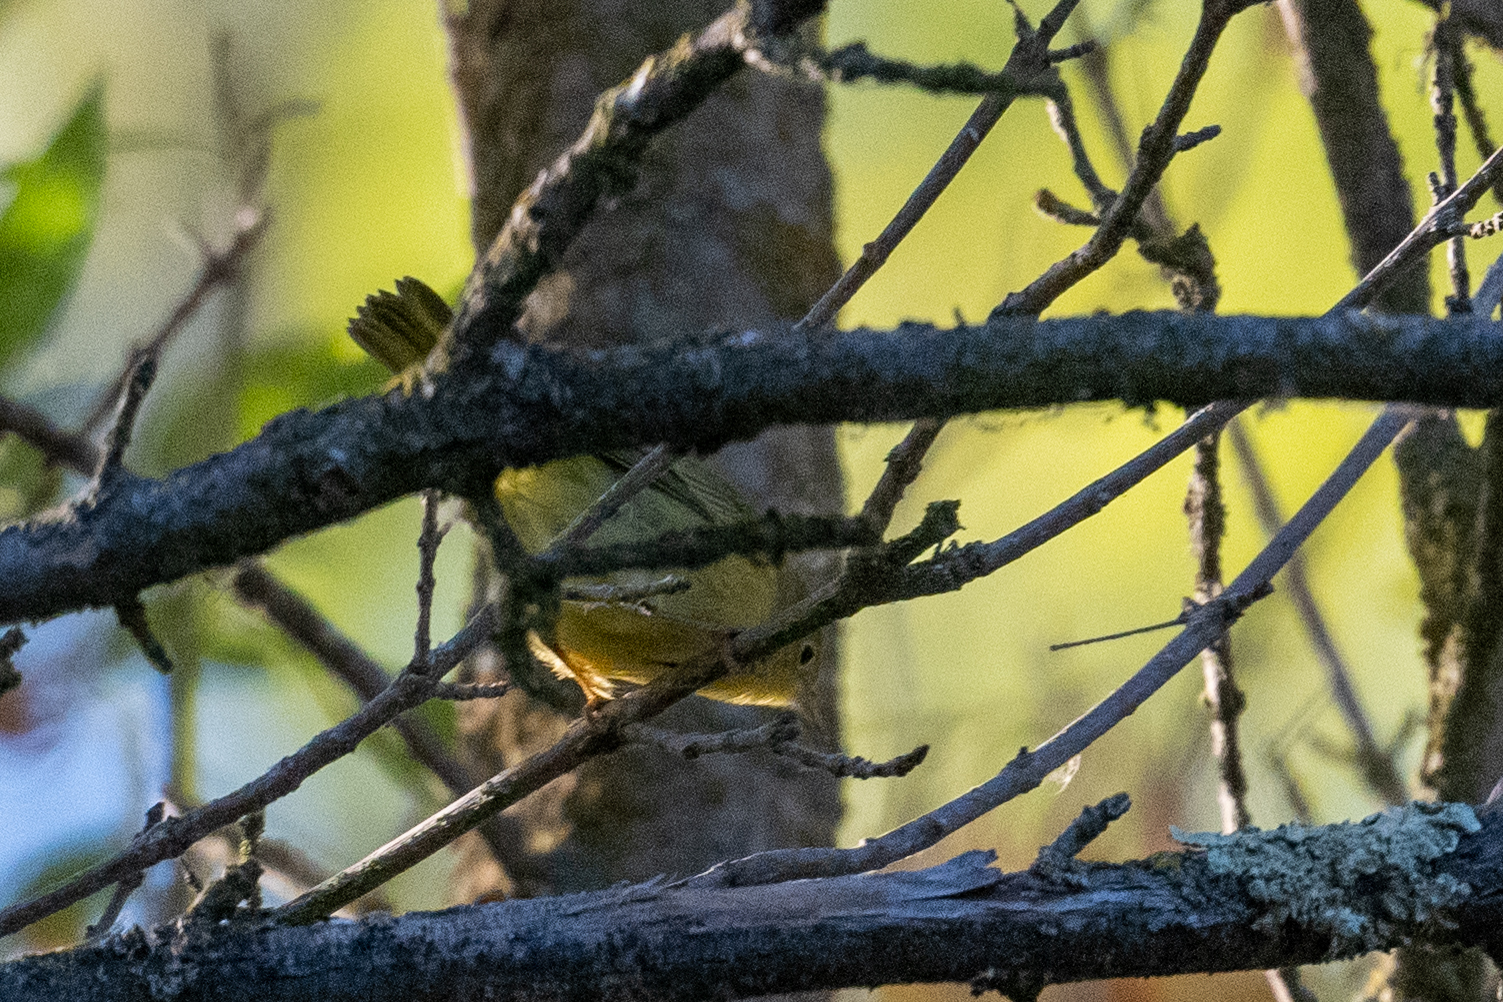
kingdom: Animalia
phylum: Chordata
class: Aves
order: Passeriformes
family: Parulidae
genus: Setophaga
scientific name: Setophaga petechia
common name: Yellow warbler
